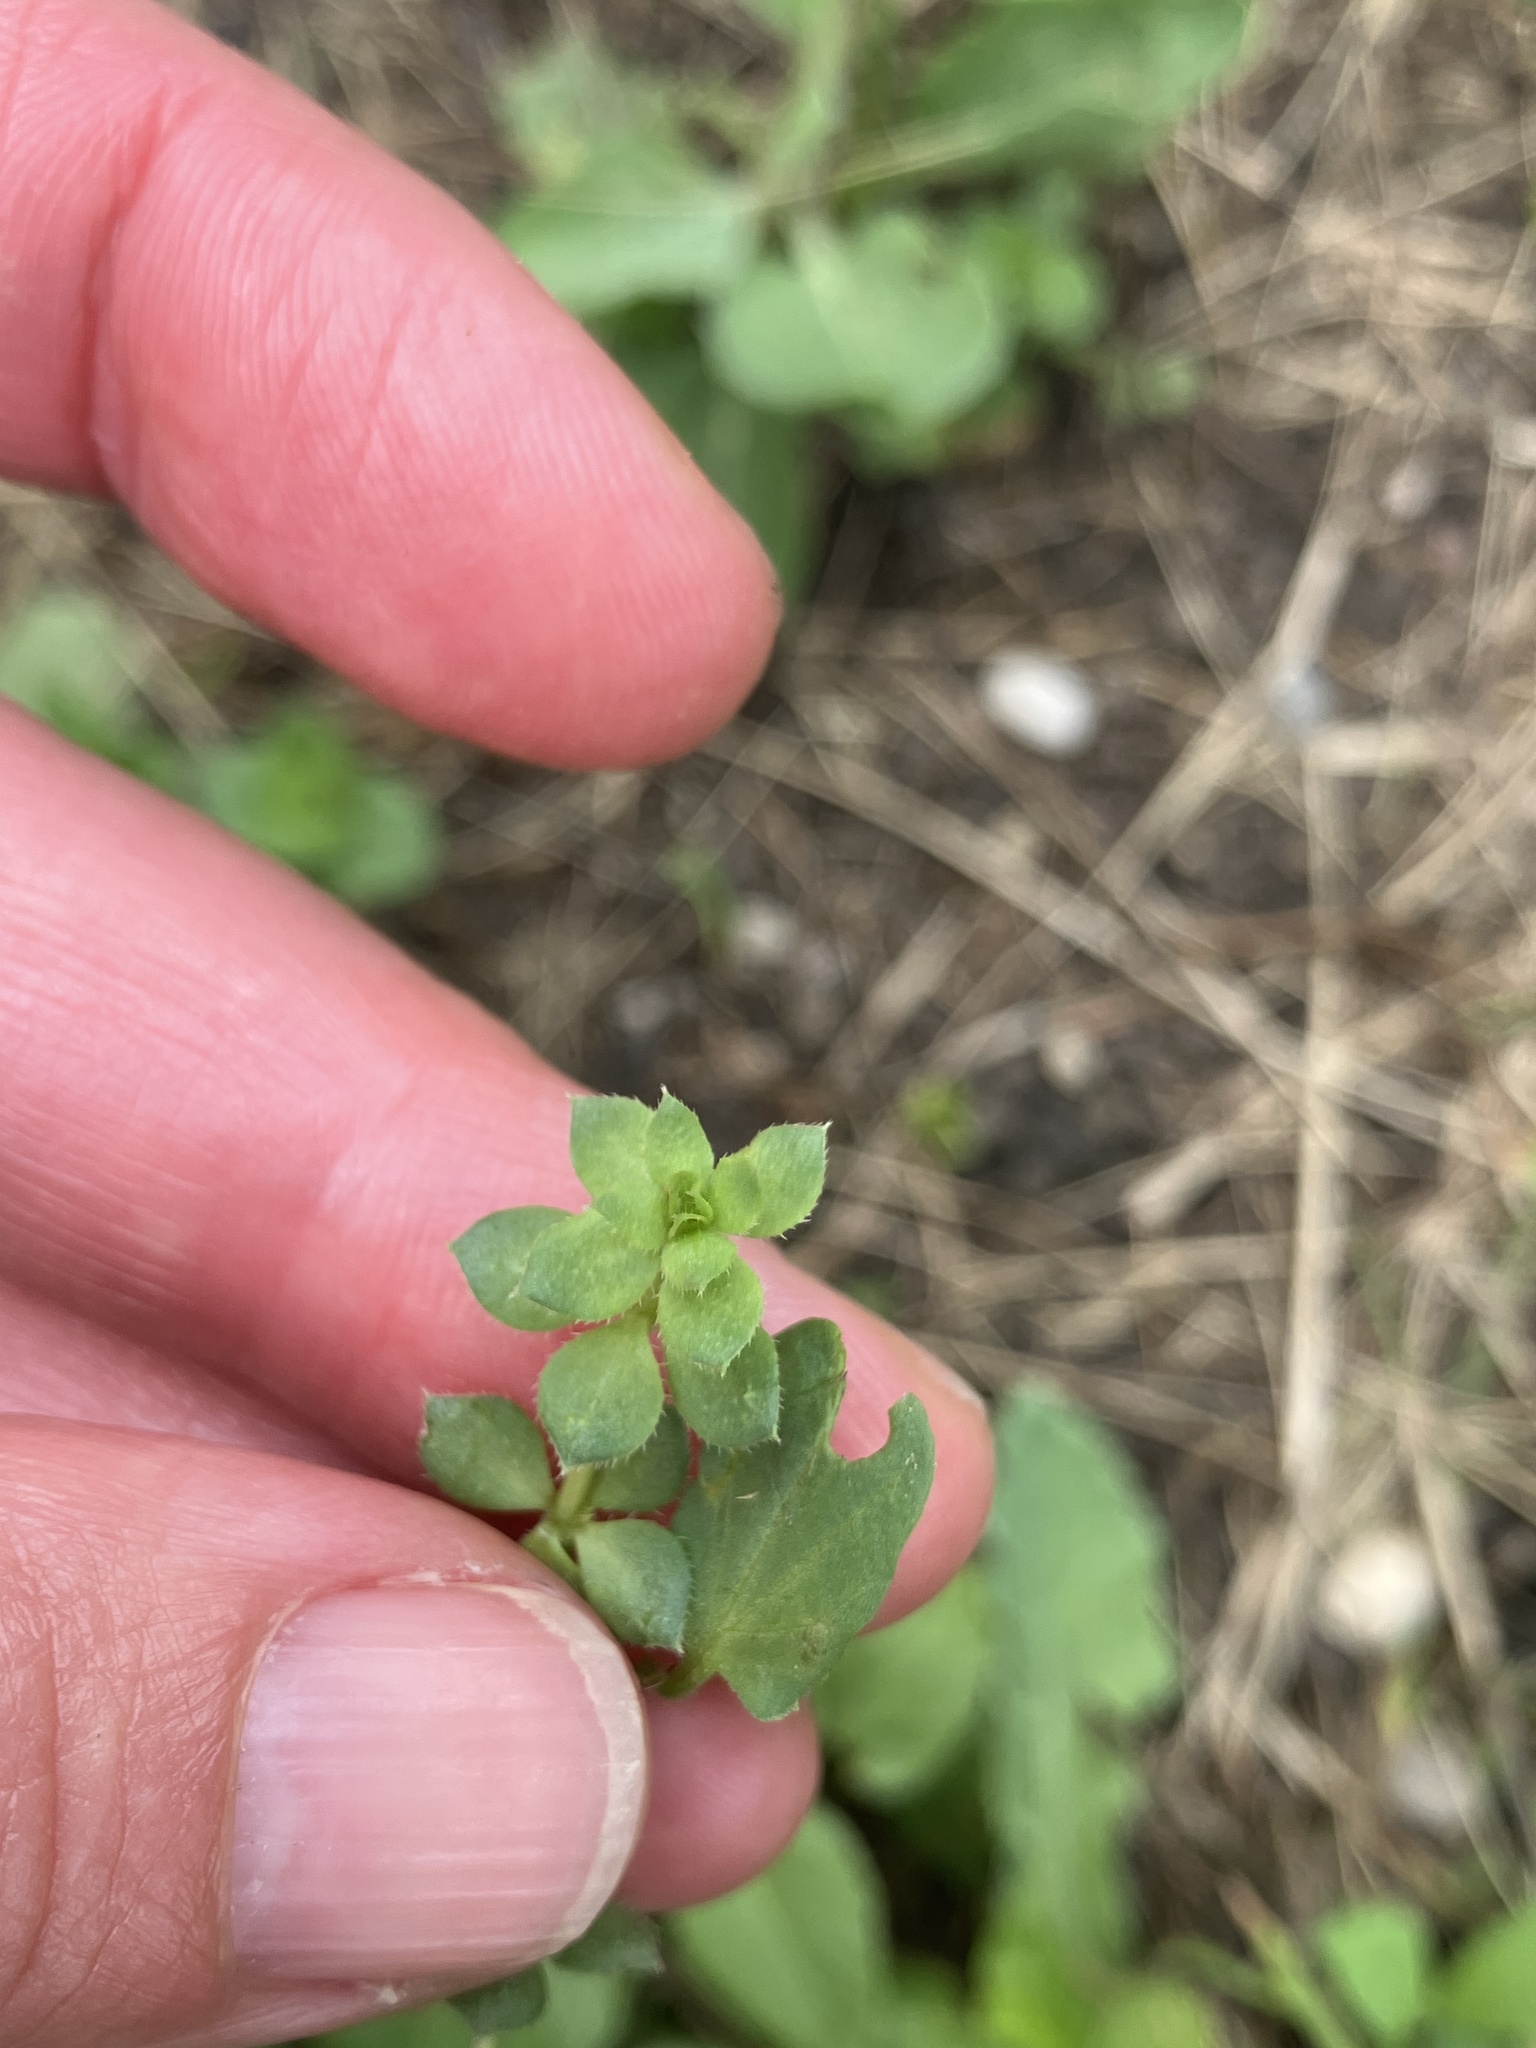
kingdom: Plantae
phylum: Tracheophyta
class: Magnoliopsida
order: Gentianales
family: Rubiaceae
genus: Sherardia
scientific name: Sherardia arvensis
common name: Field madder
